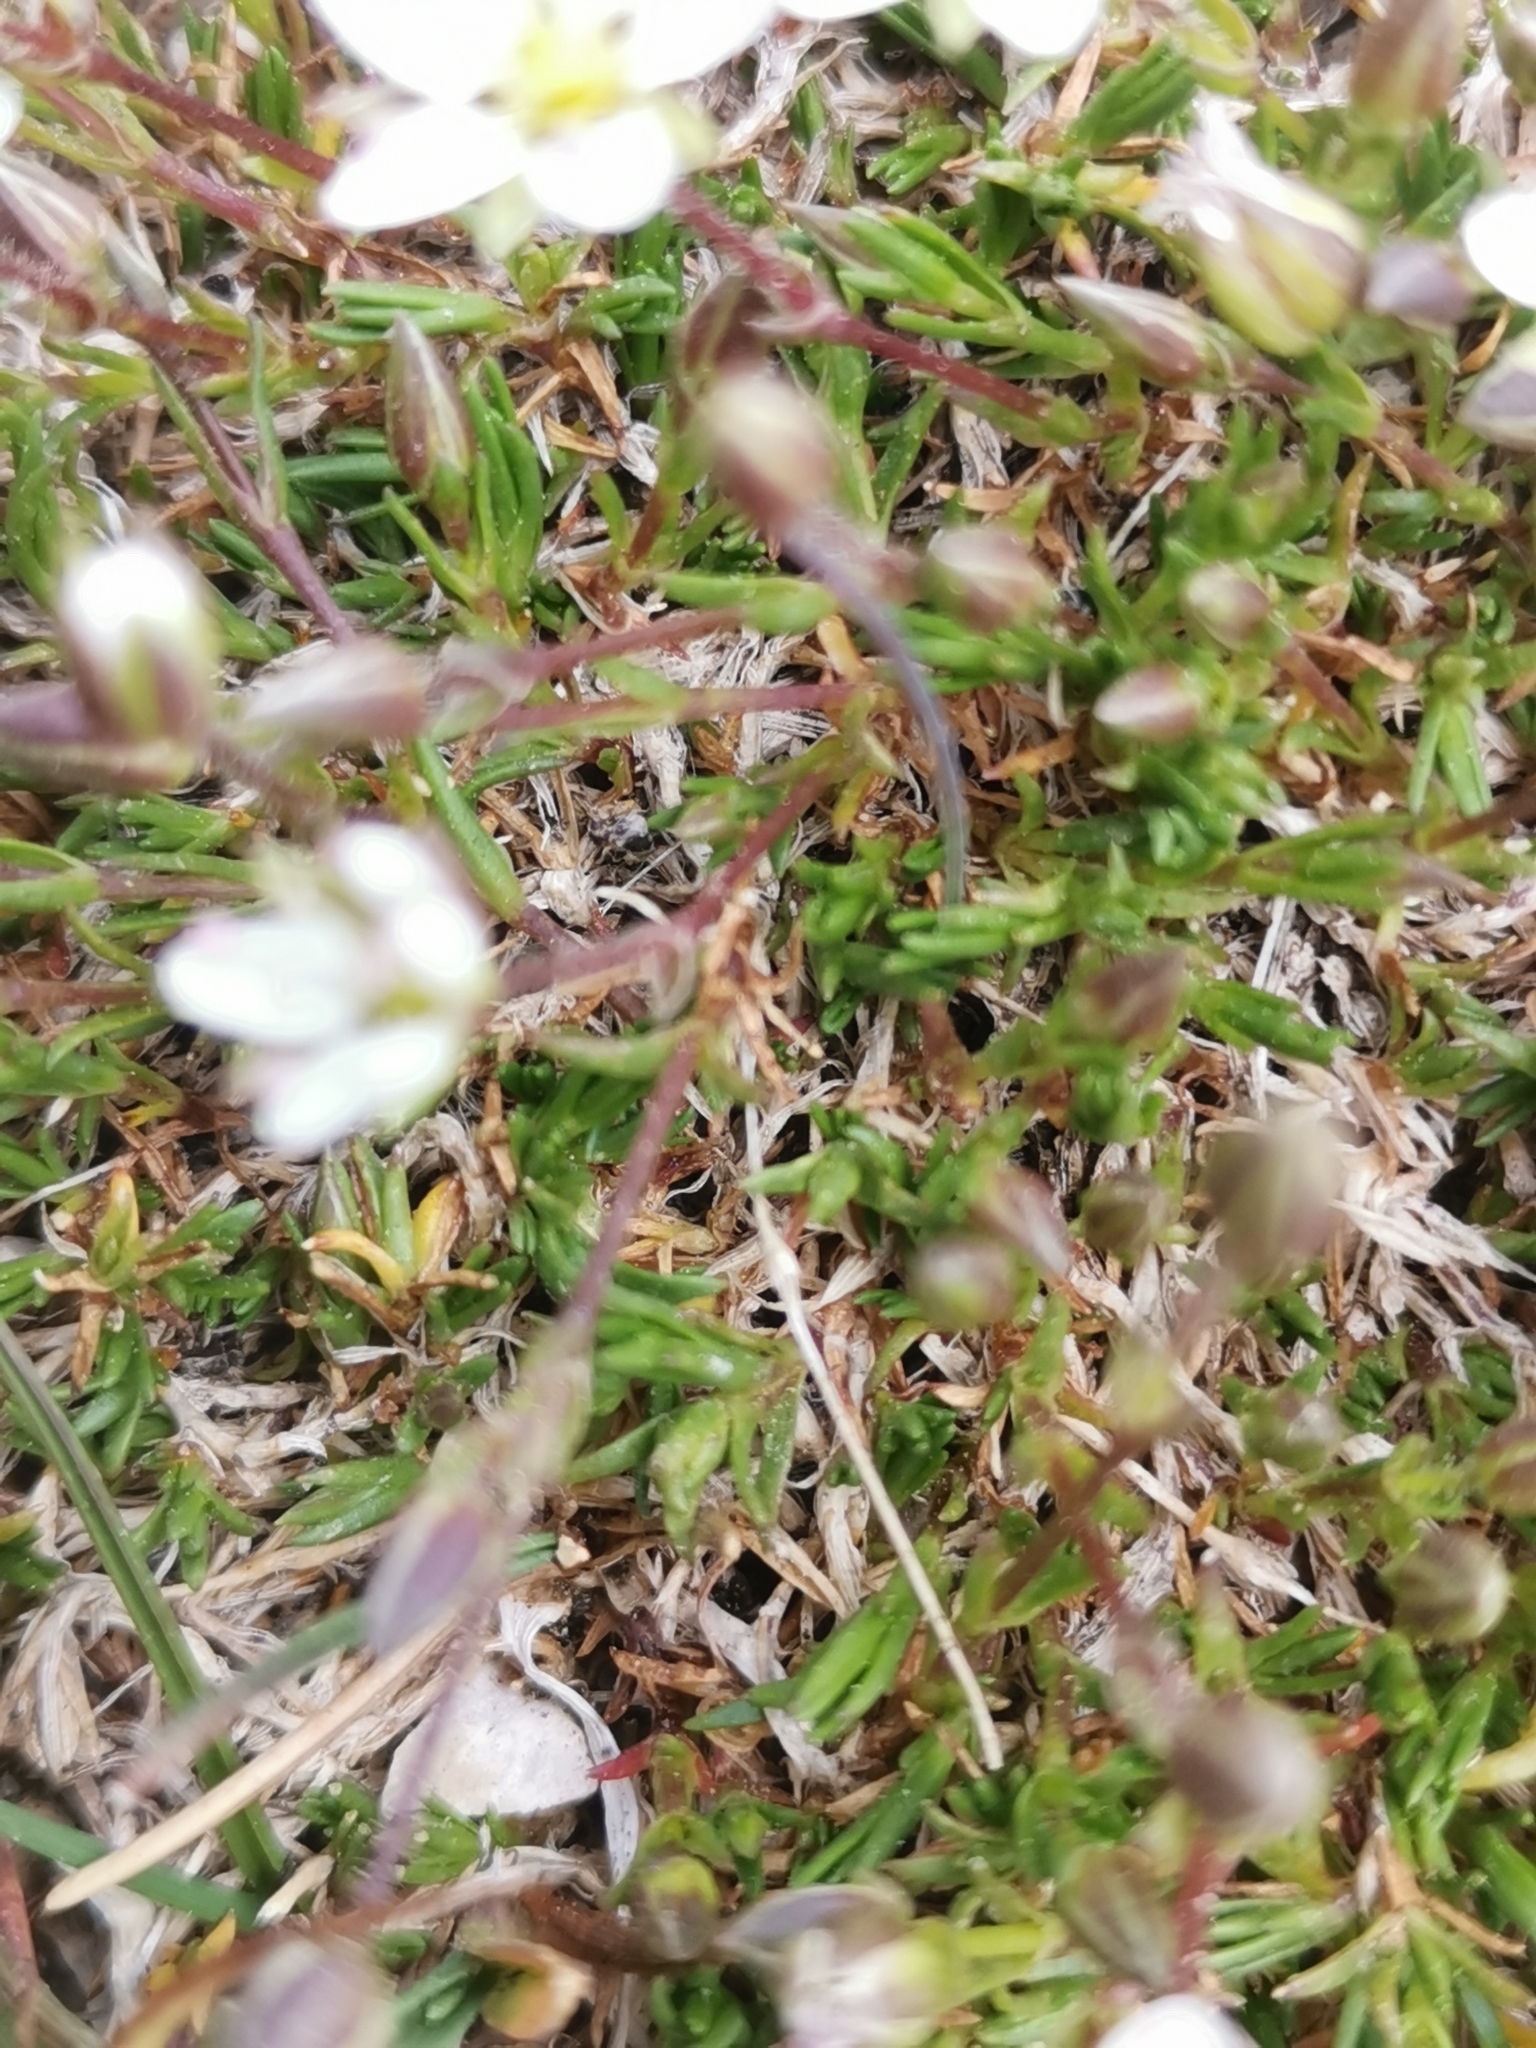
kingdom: Plantae
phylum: Tracheophyta
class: Magnoliopsida
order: Caryophyllales
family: Caryophyllaceae
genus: Sabulina
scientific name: Sabulina verna
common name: Spring sandwort
